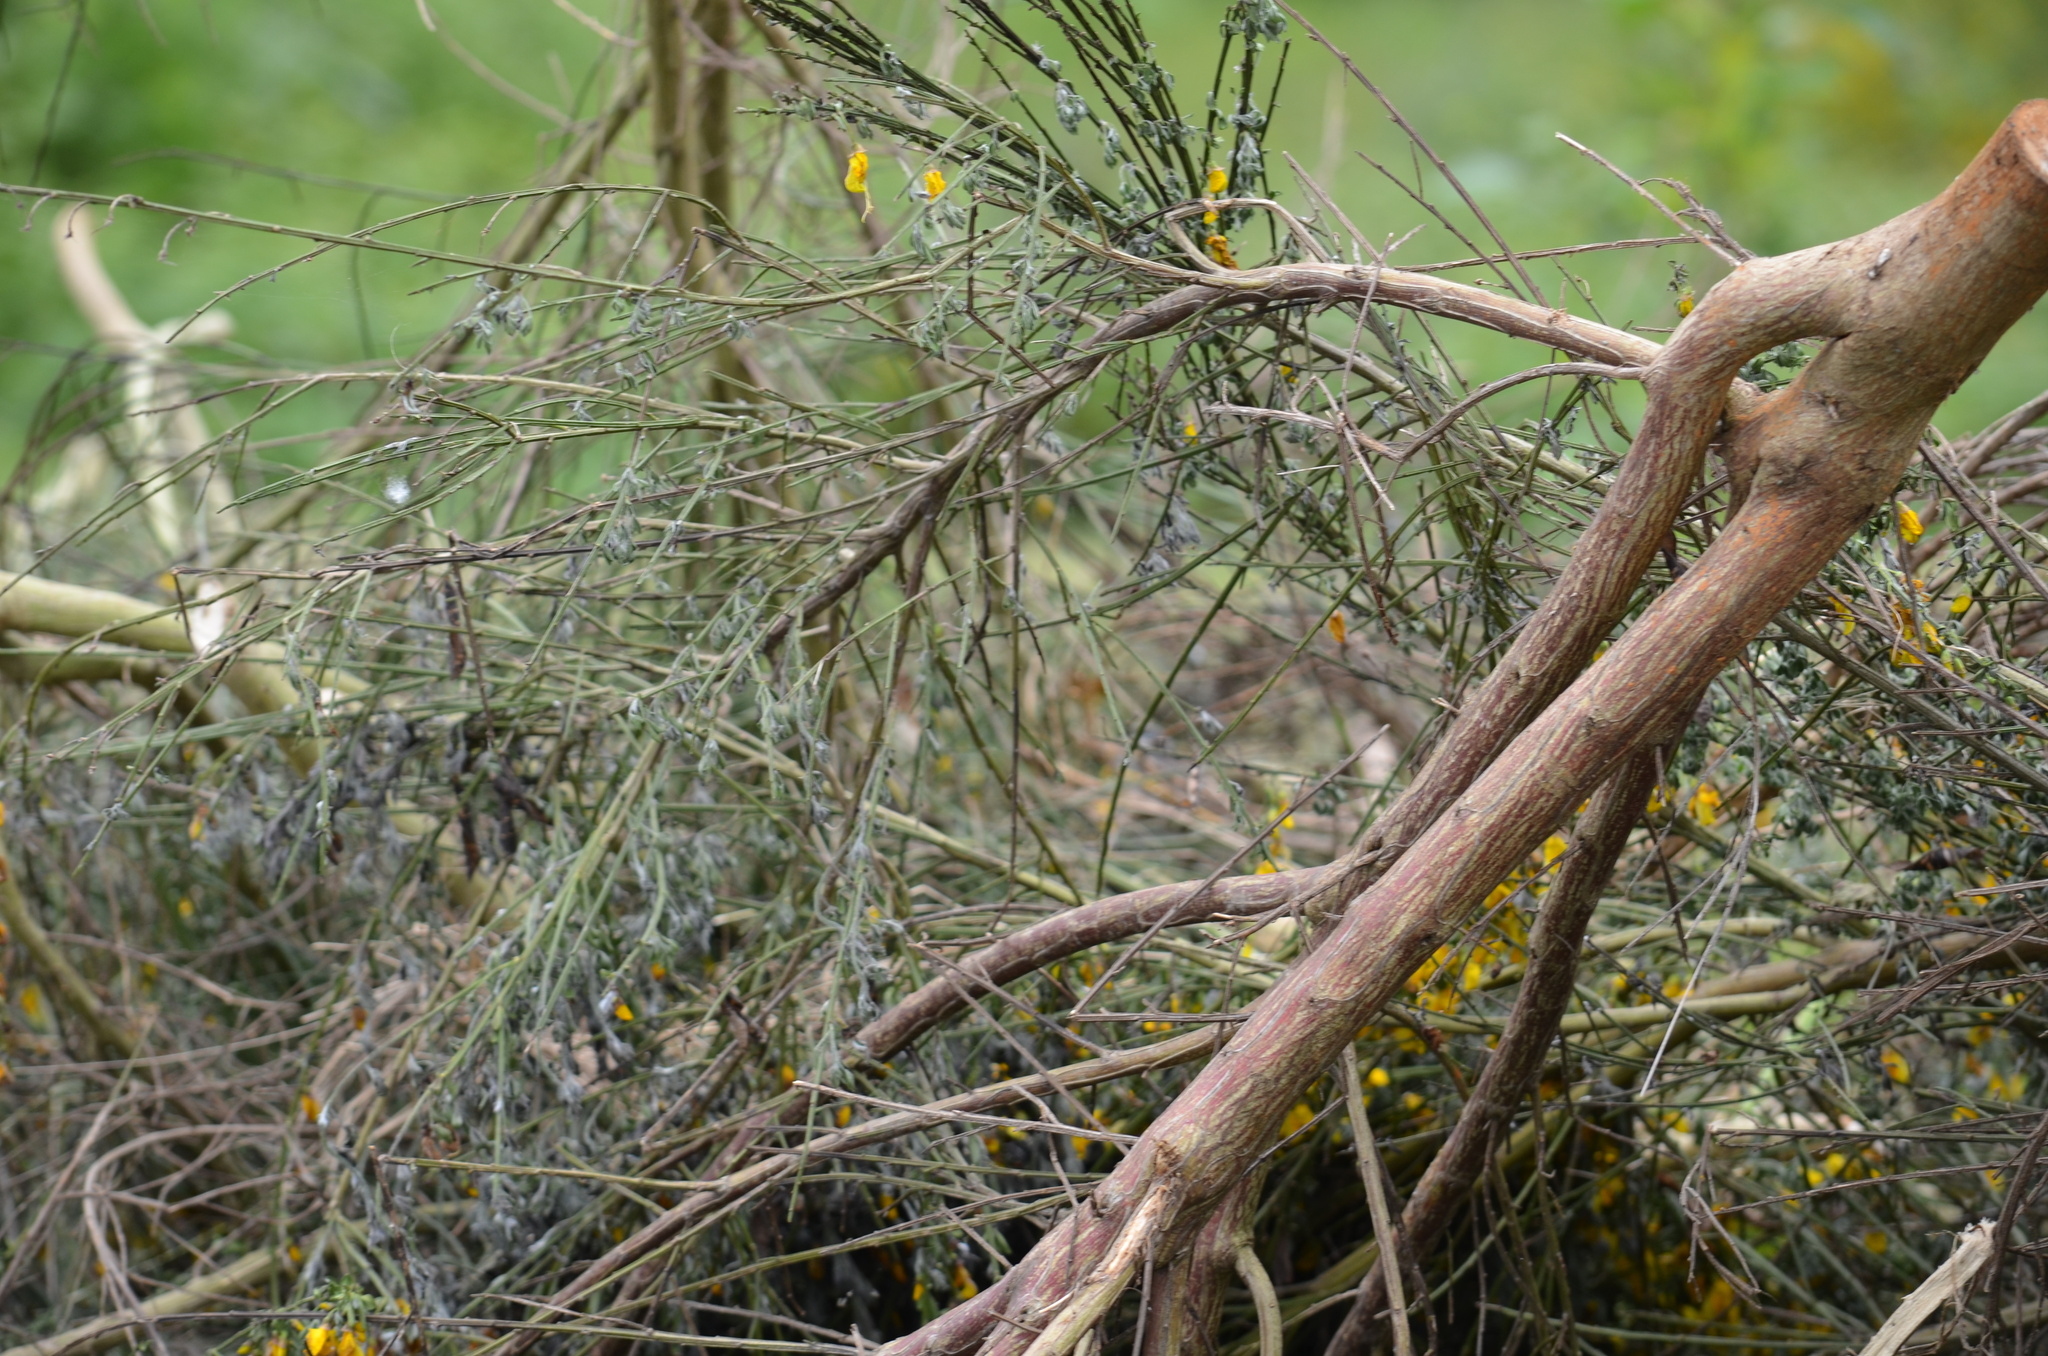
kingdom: Plantae
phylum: Tracheophyta
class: Magnoliopsida
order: Fabales
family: Fabaceae
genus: Cytisus
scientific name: Cytisus scoparius
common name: Scotch broom
